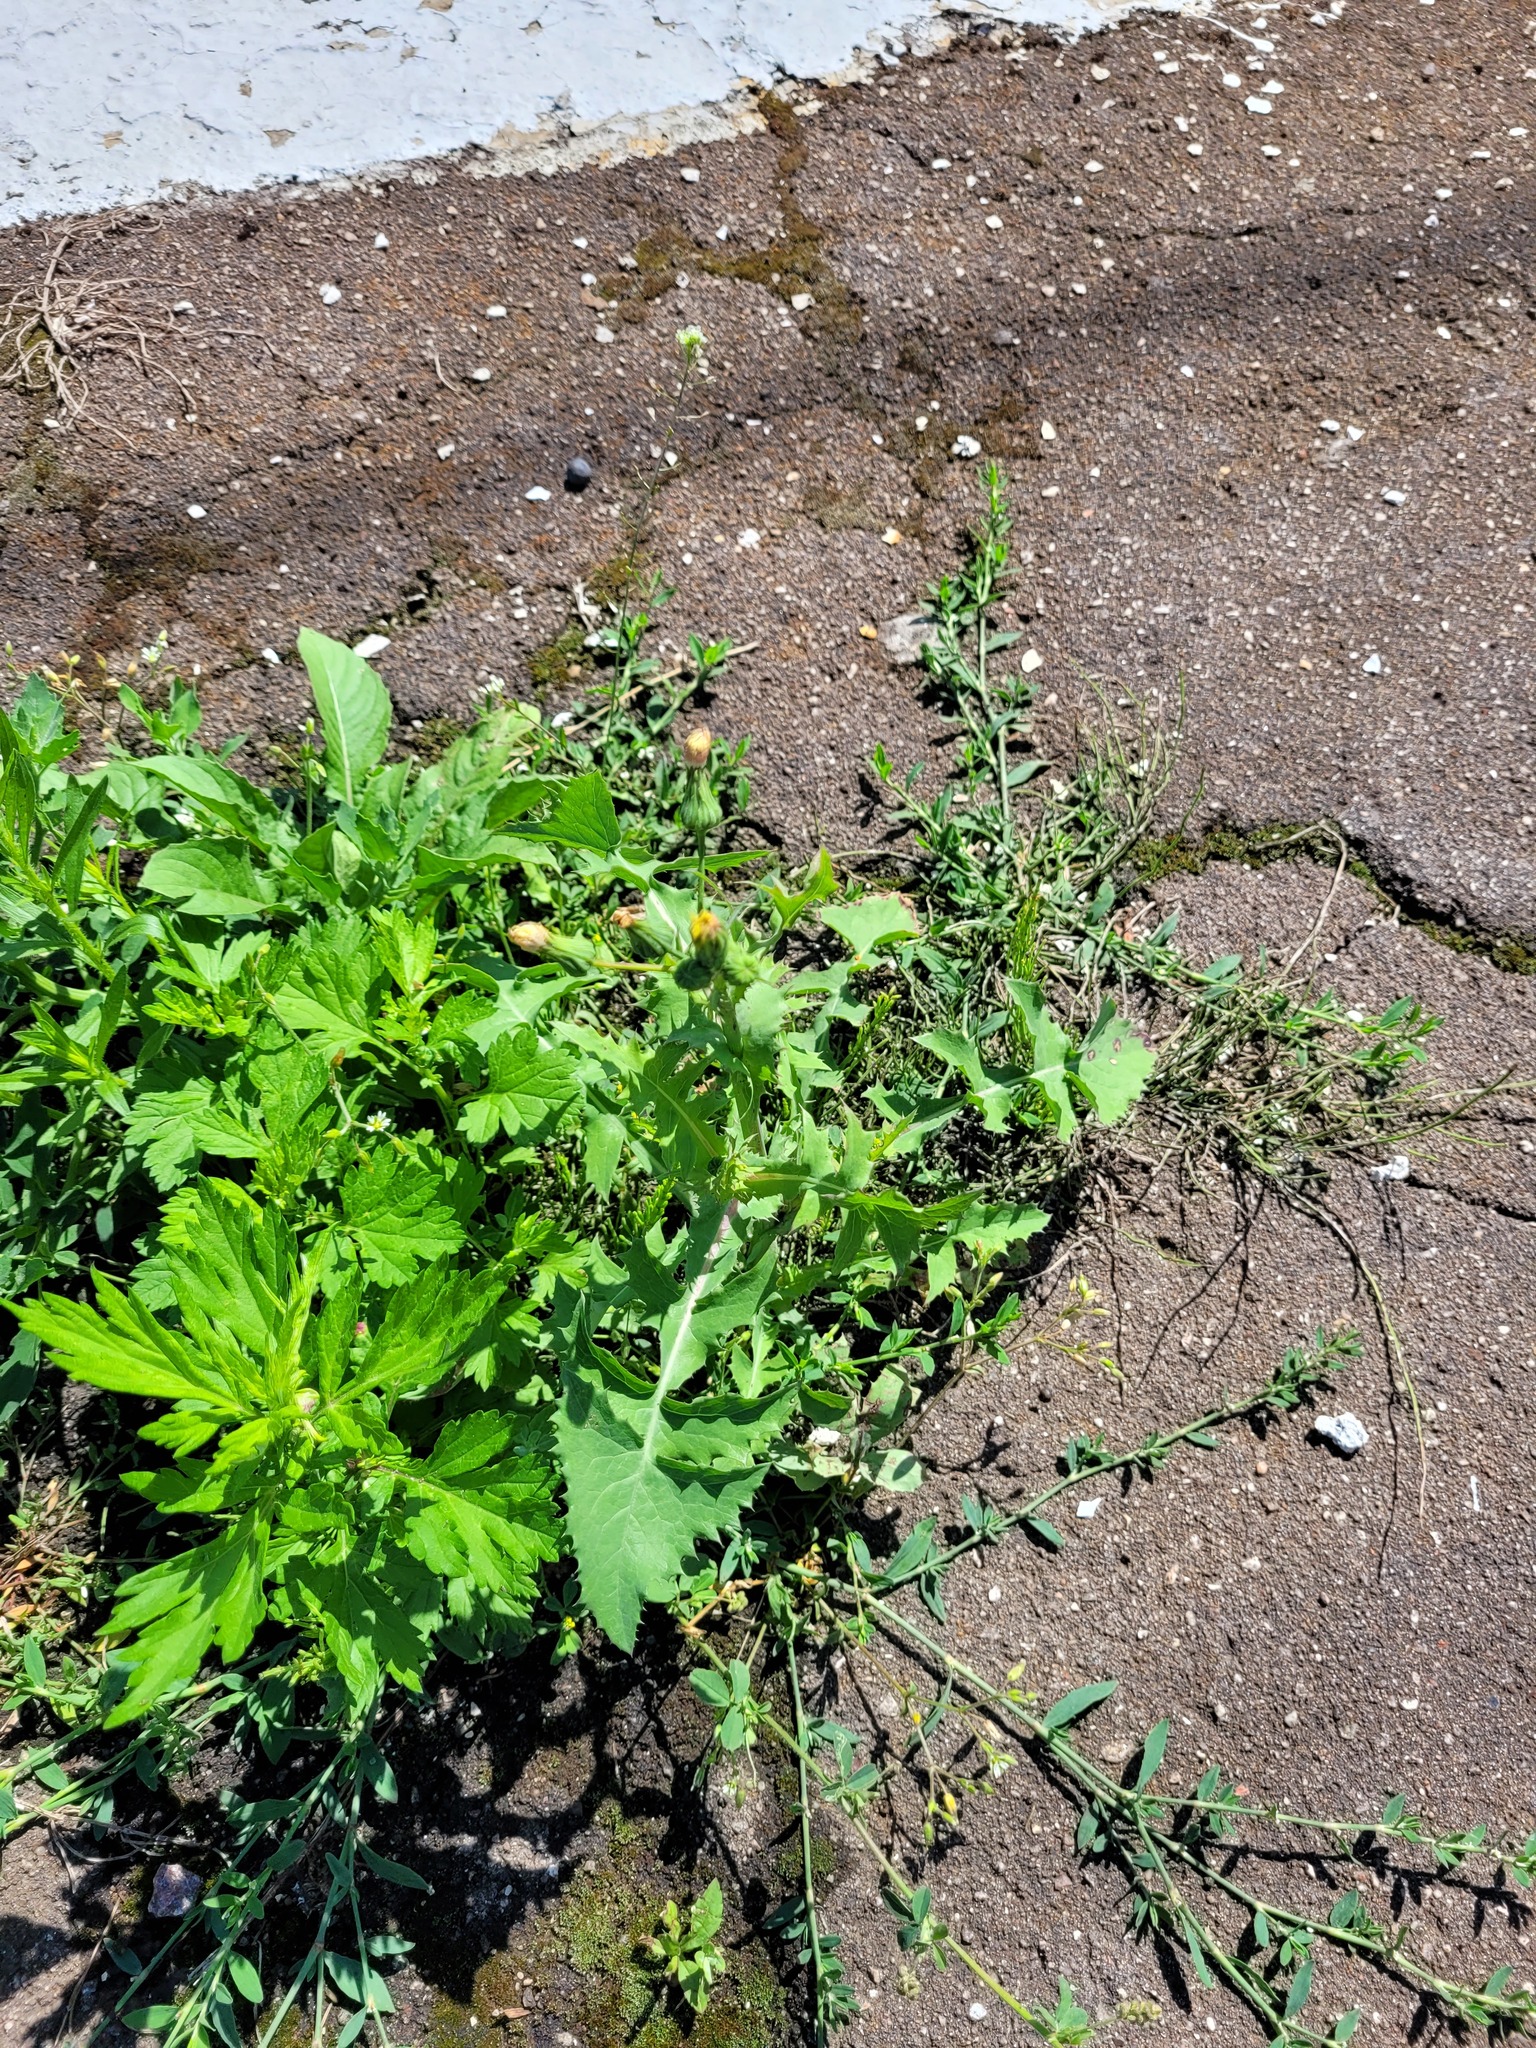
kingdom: Plantae
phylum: Tracheophyta
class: Magnoliopsida
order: Asterales
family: Asteraceae
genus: Sonchus
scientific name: Sonchus oleraceus
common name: Common sowthistle
